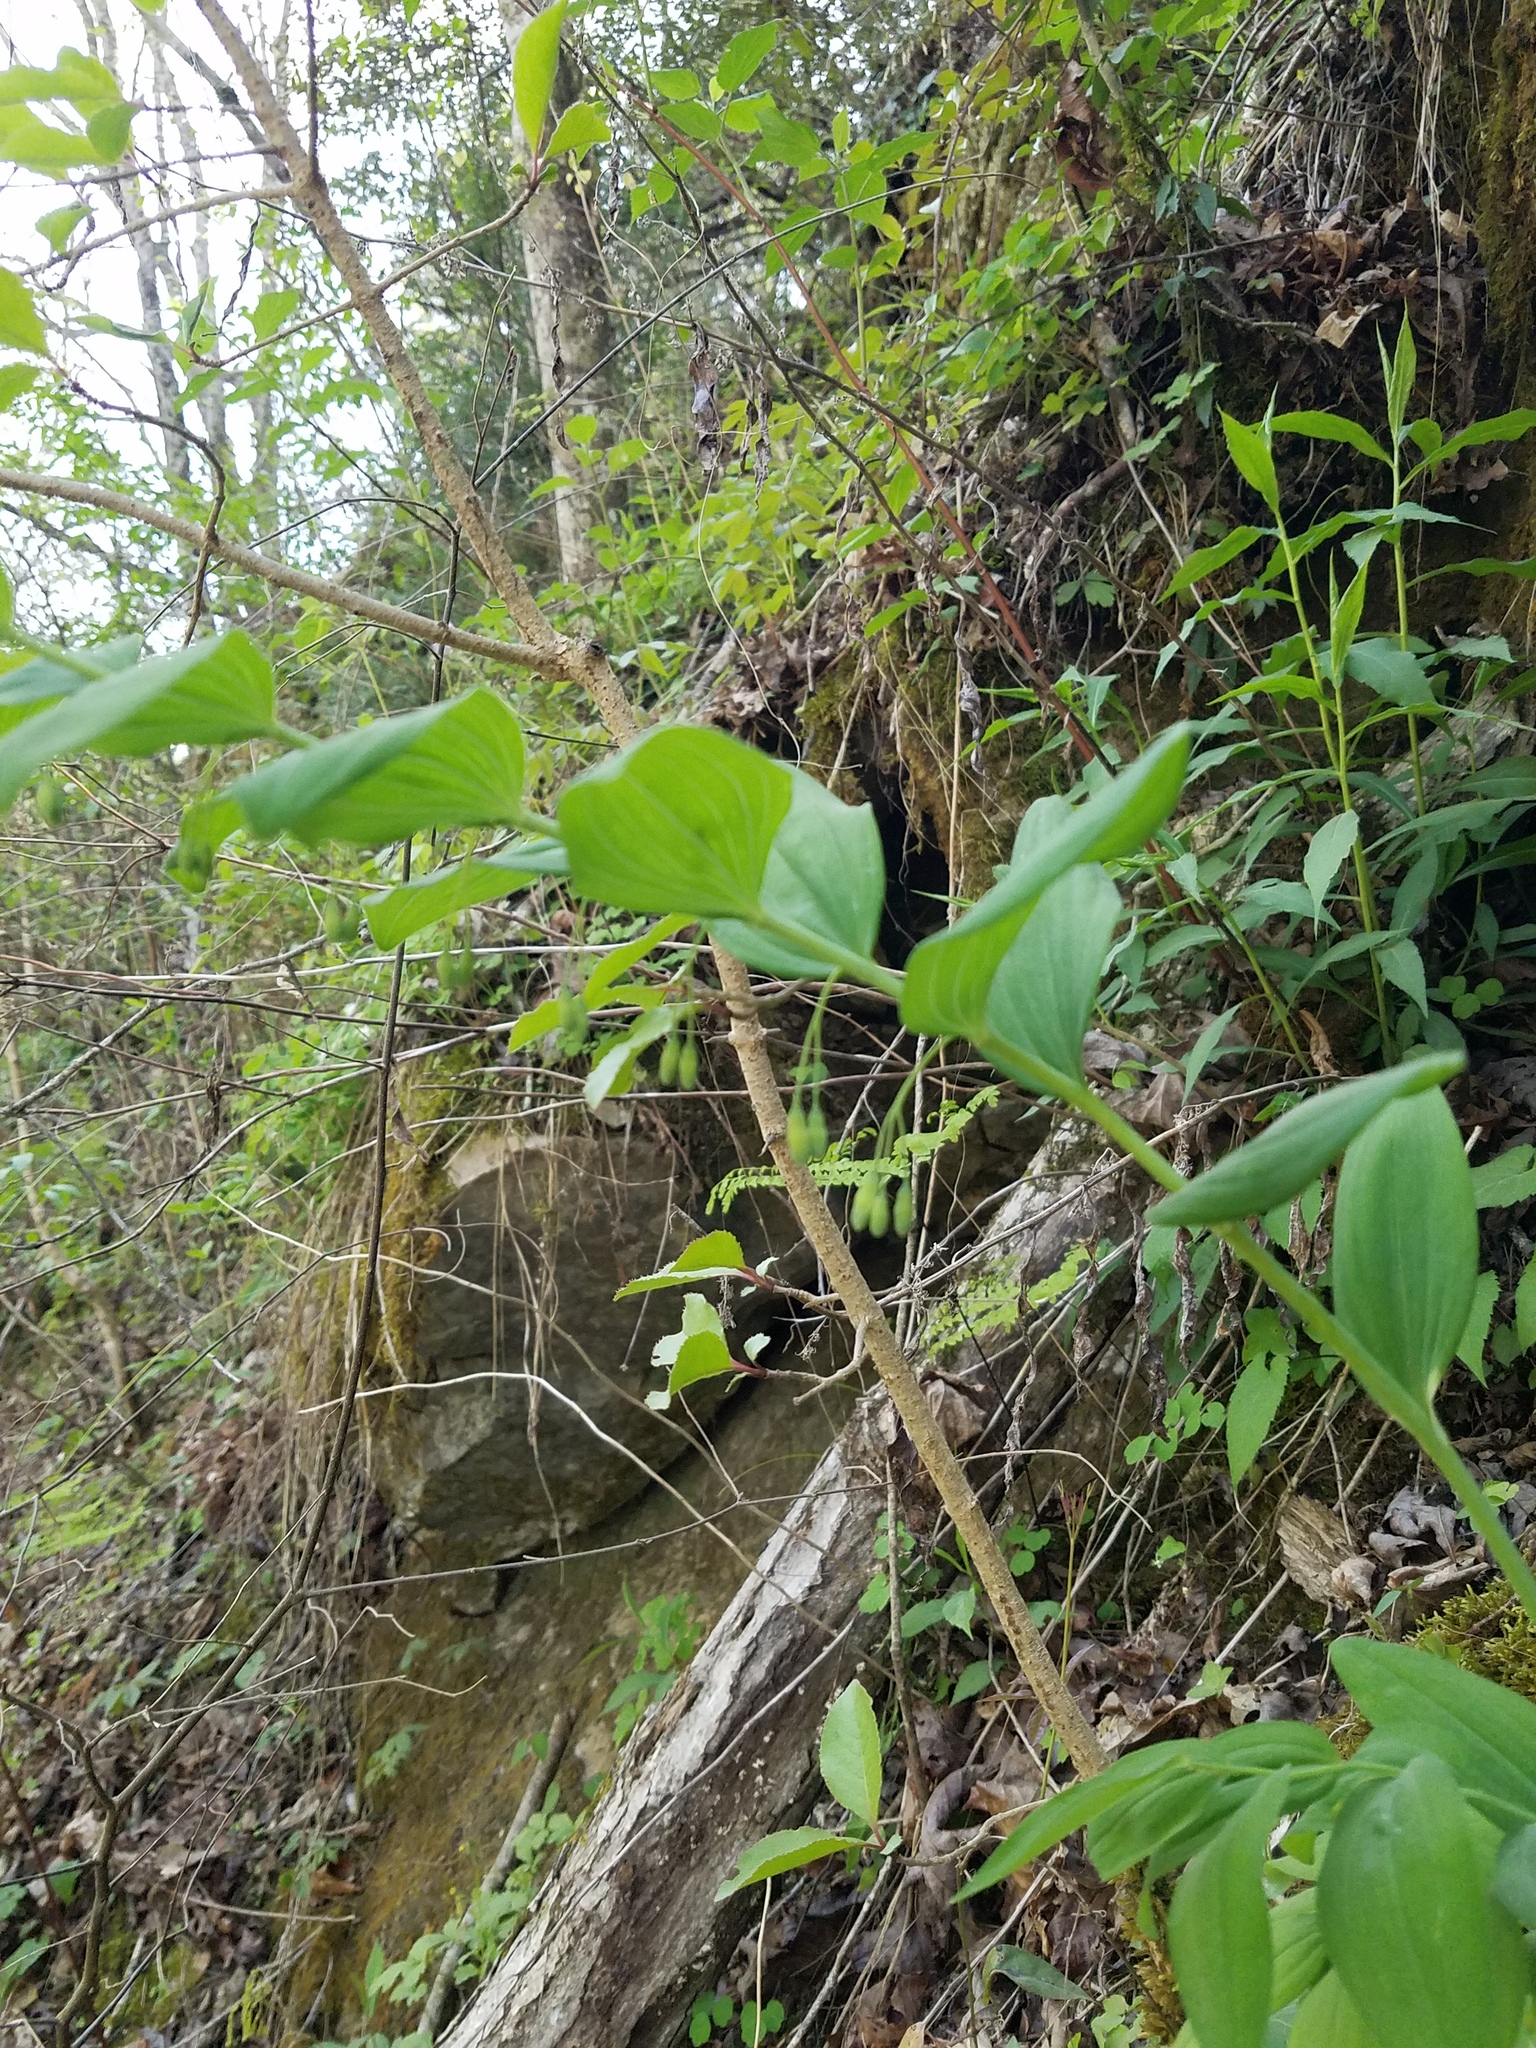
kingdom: Plantae
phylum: Tracheophyta
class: Liliopsida
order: Asparagales
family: Asparagaceae
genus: Polygonatum
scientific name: Polygonatum biflorum
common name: American solomon's-seal
